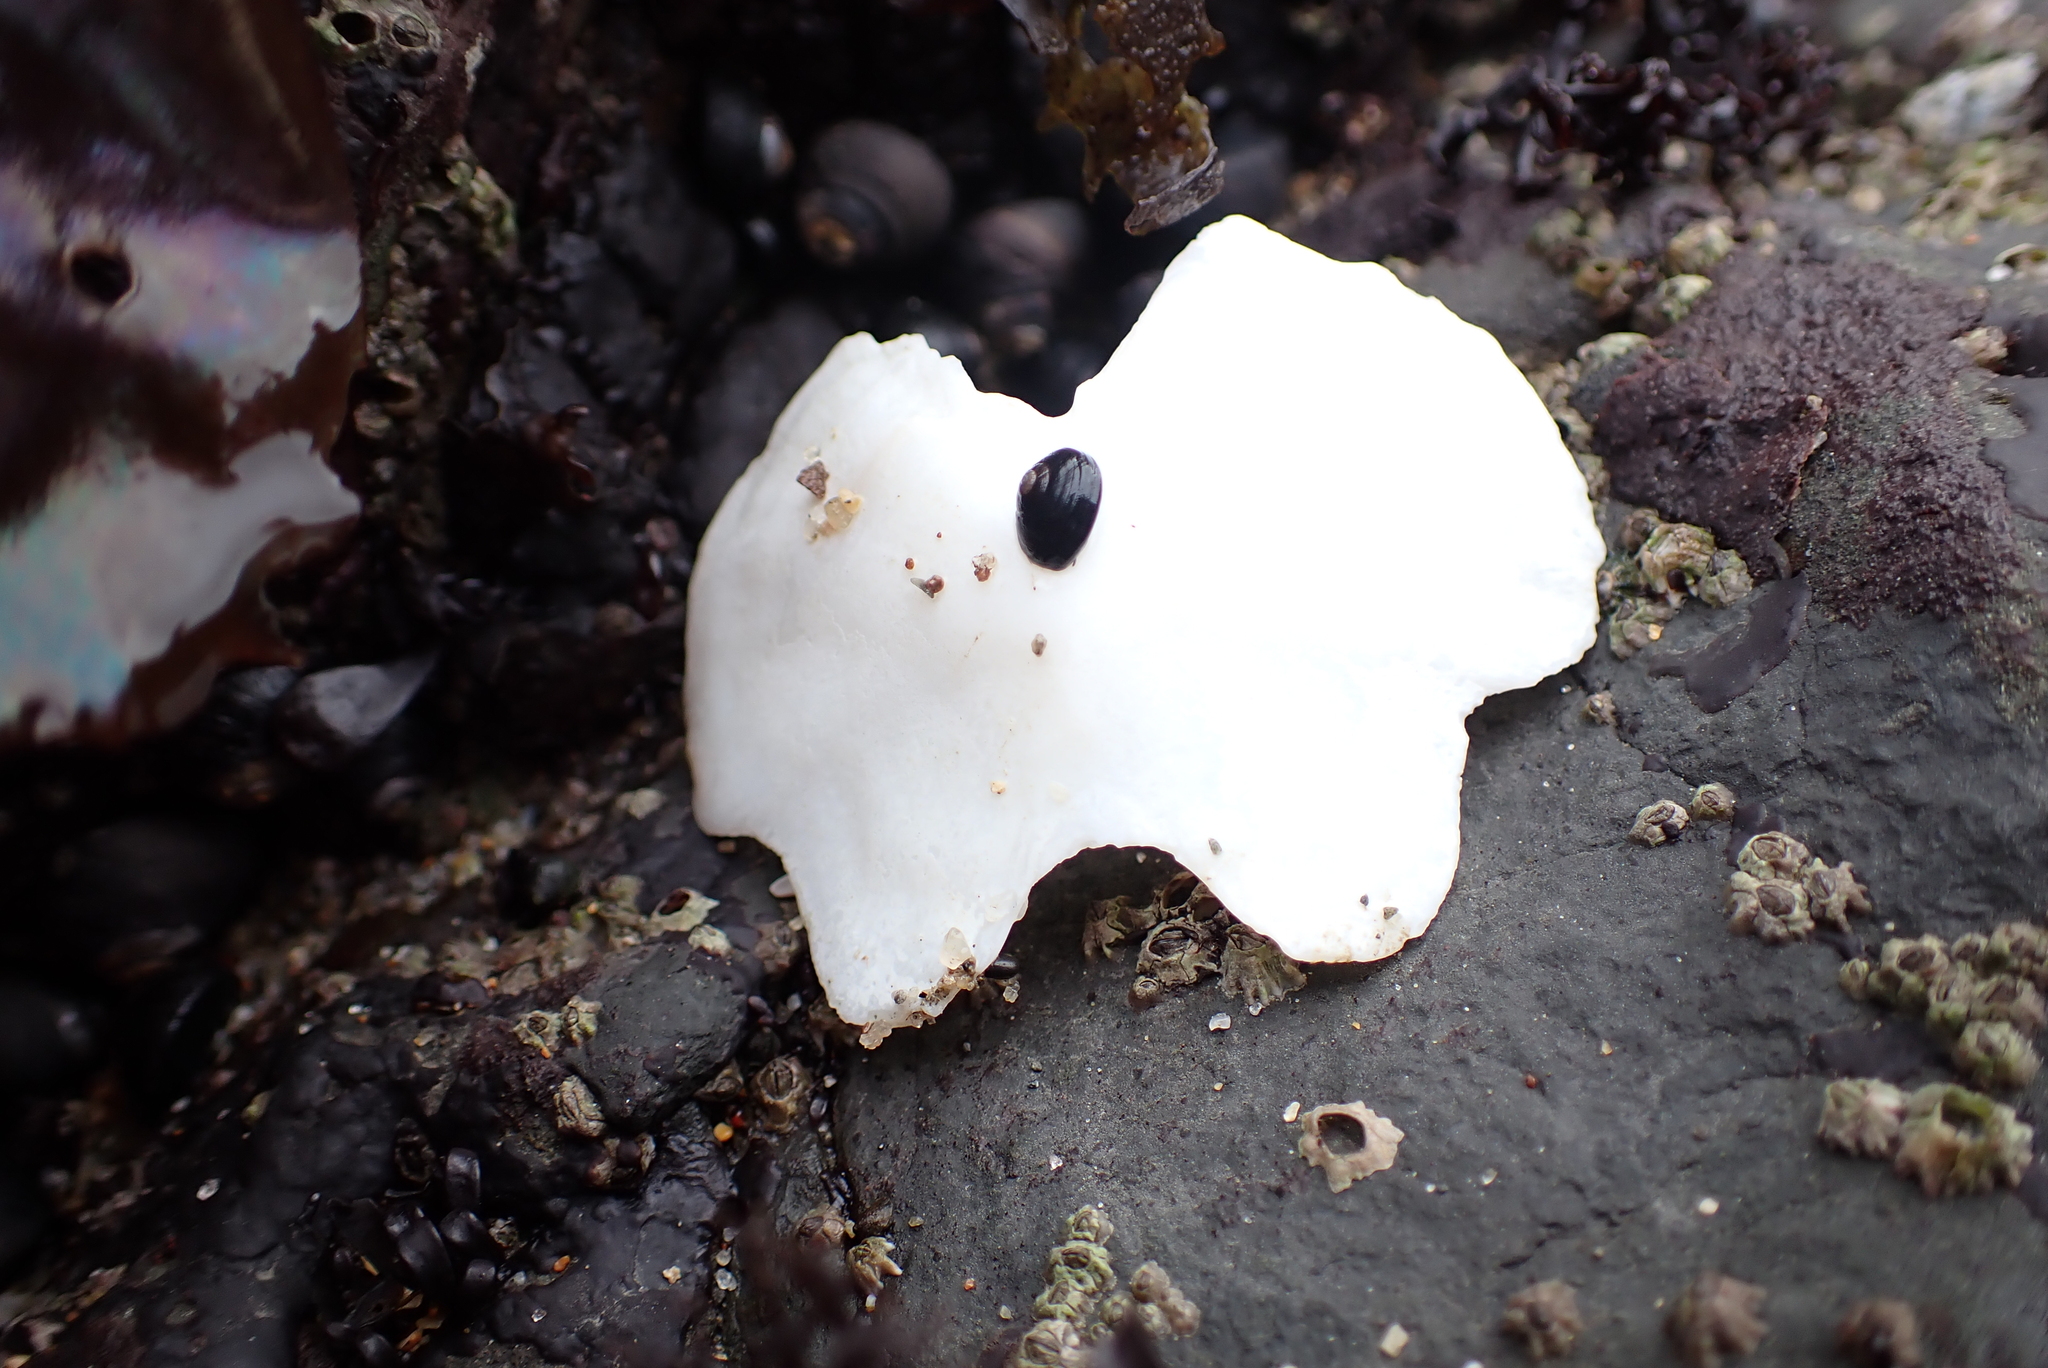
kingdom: Animalia
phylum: Mollusca
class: Polyplacophora
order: Chitonida
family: Acanthochitonidae
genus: Cryptochiton
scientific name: Cryptochiton stelleri
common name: Giant pacific chiton
